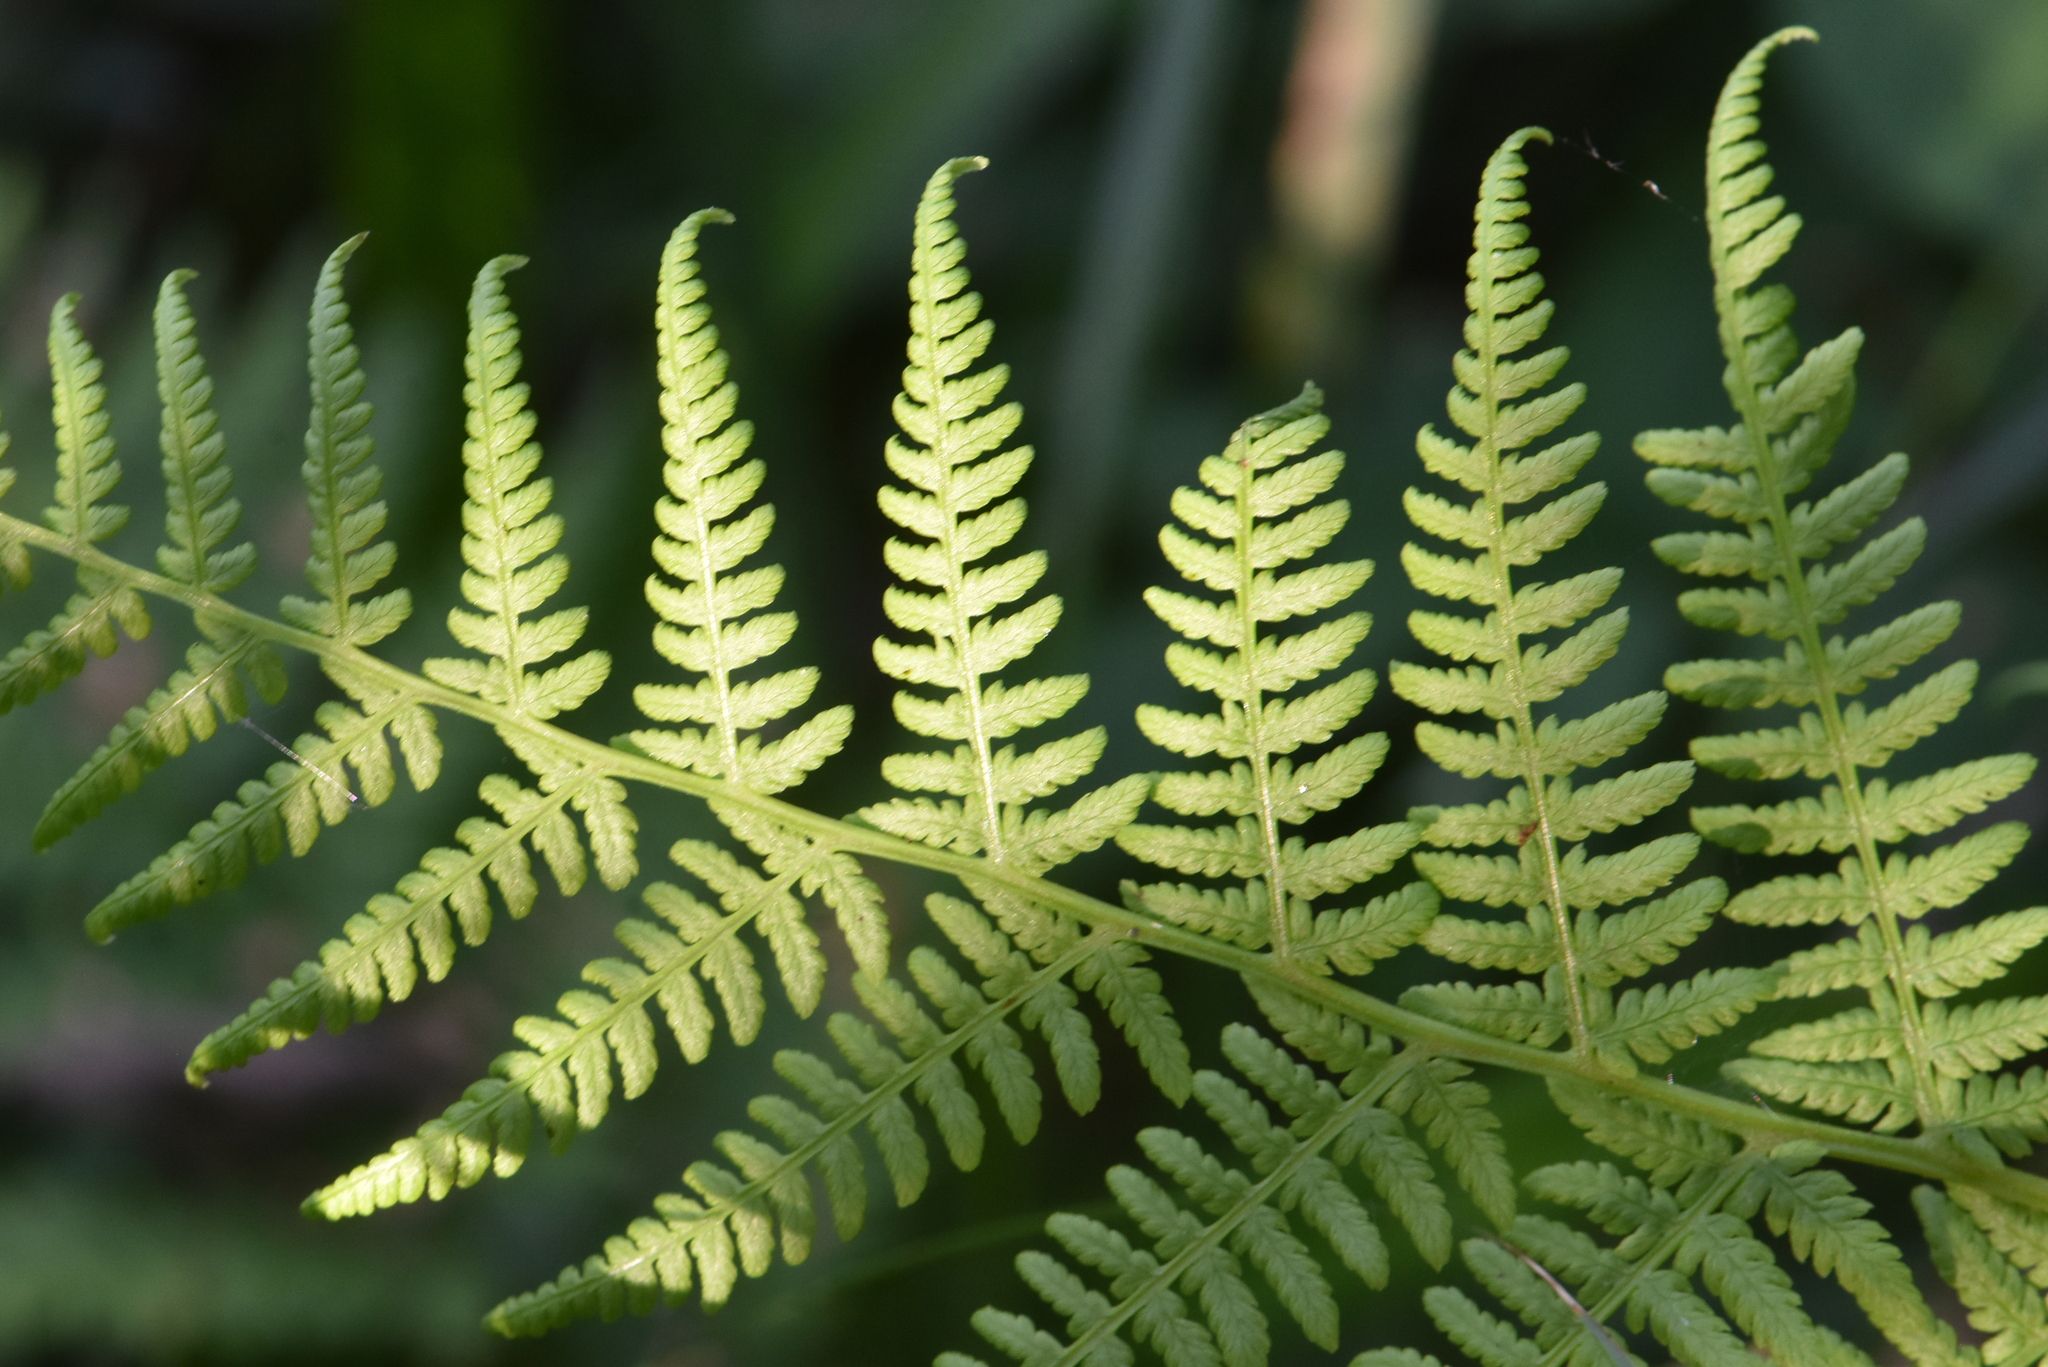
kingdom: Plantae
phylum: Tracheophyta
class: Polypodiopsida
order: Polypodiales
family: Athyriaceae
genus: Athyrium
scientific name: Athyrium filix-femina
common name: Lady fern
